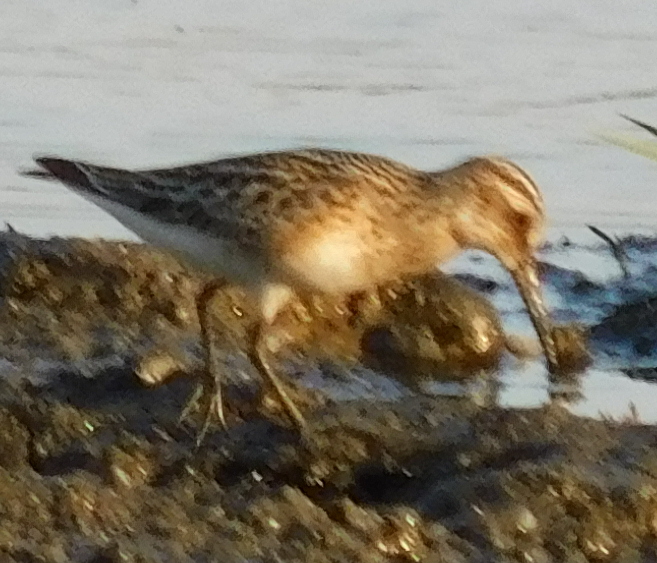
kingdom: Animalia
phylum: Chordata
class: Aves
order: Charadriiformes
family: Scolopacidae
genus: Calidris
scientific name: Calidris falcinellus
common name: Broad-billed sandpiper
